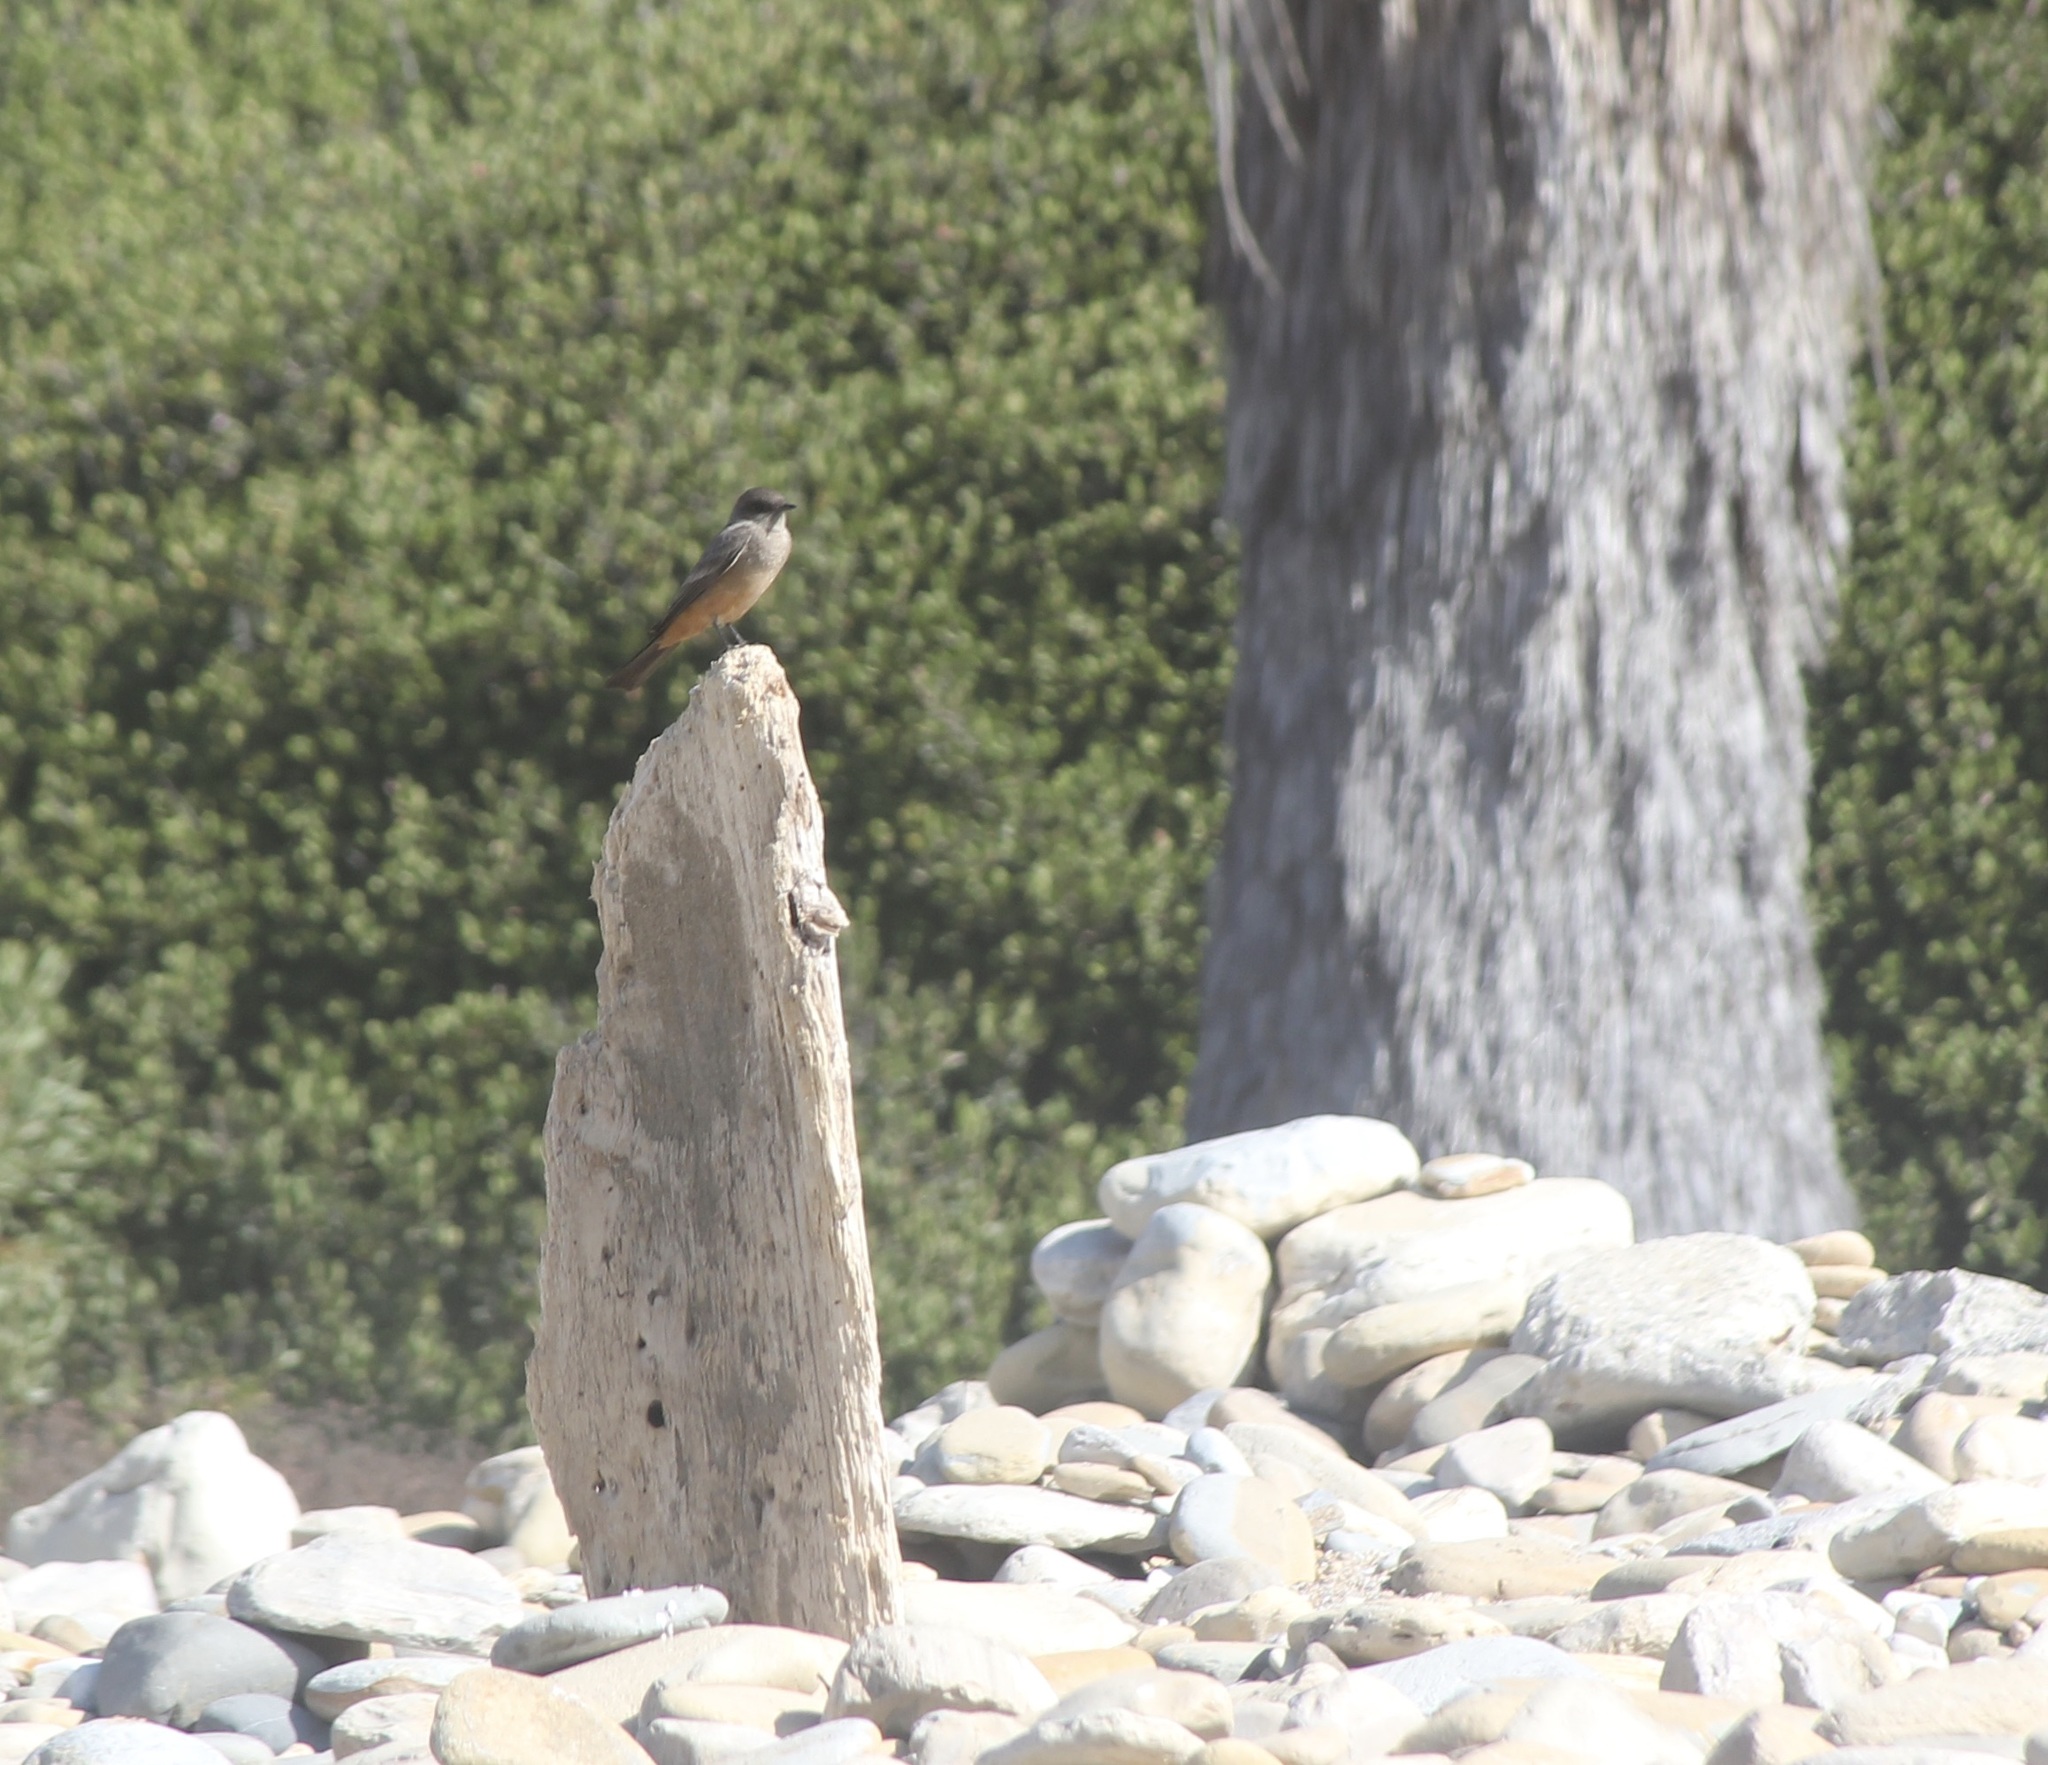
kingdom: Animalia
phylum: Chordata
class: Aves
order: Passeriformes
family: Tyrannidae
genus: Sayornis
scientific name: Sayornis saya
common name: Say's phoebe
